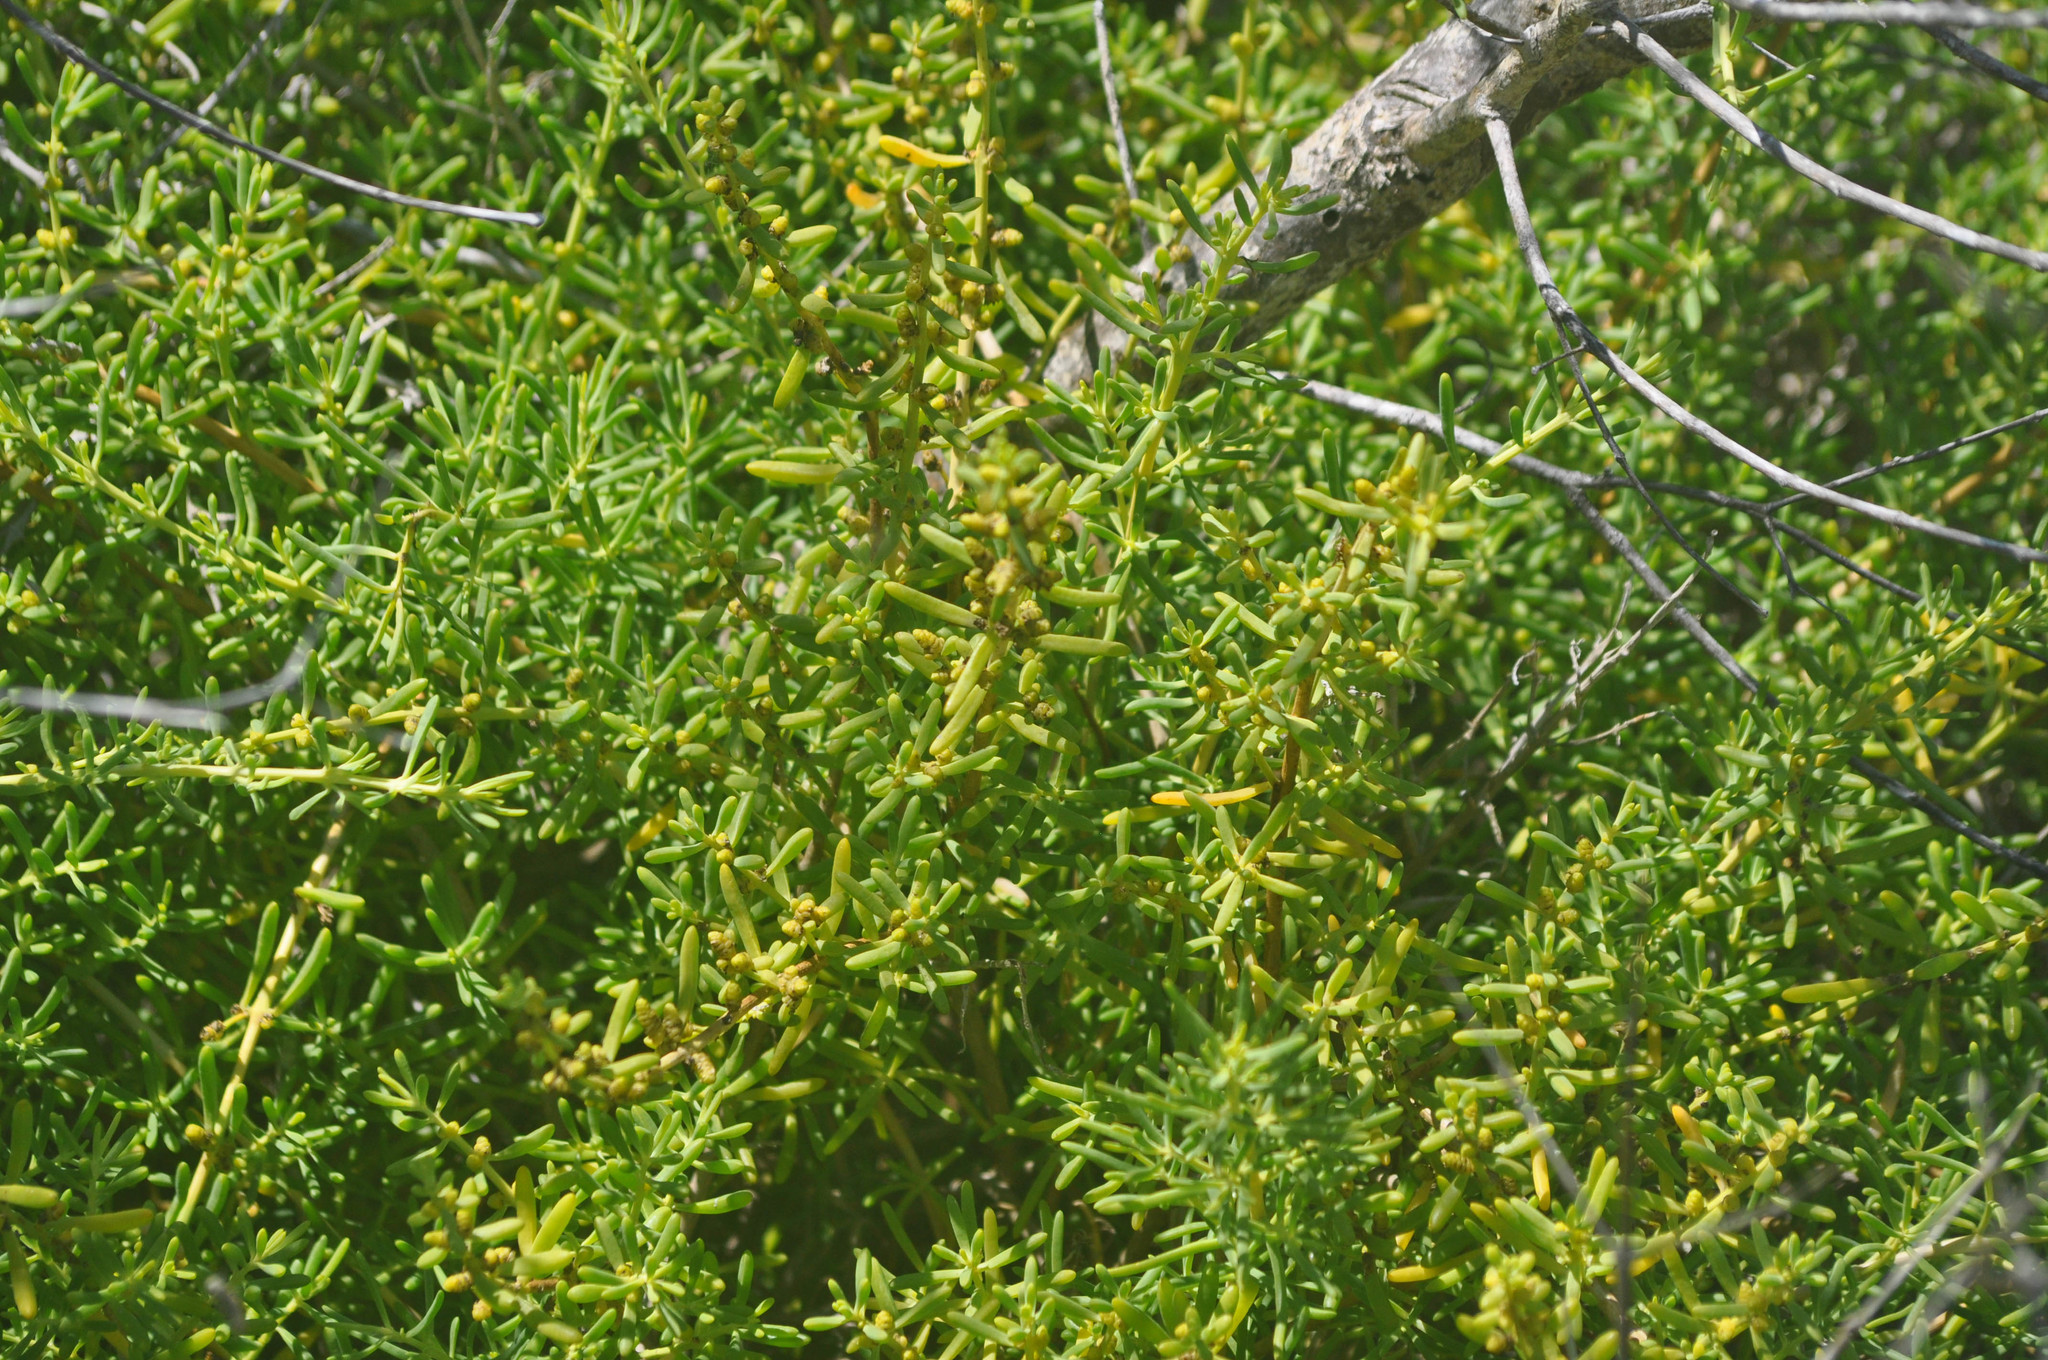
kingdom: Plantae
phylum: Tracheophyta
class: Magnoliopsida
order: Caryophyllales
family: Aizoaceae
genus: Sesuvium
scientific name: Sesuvium portulacastrum
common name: Sea-purslane
